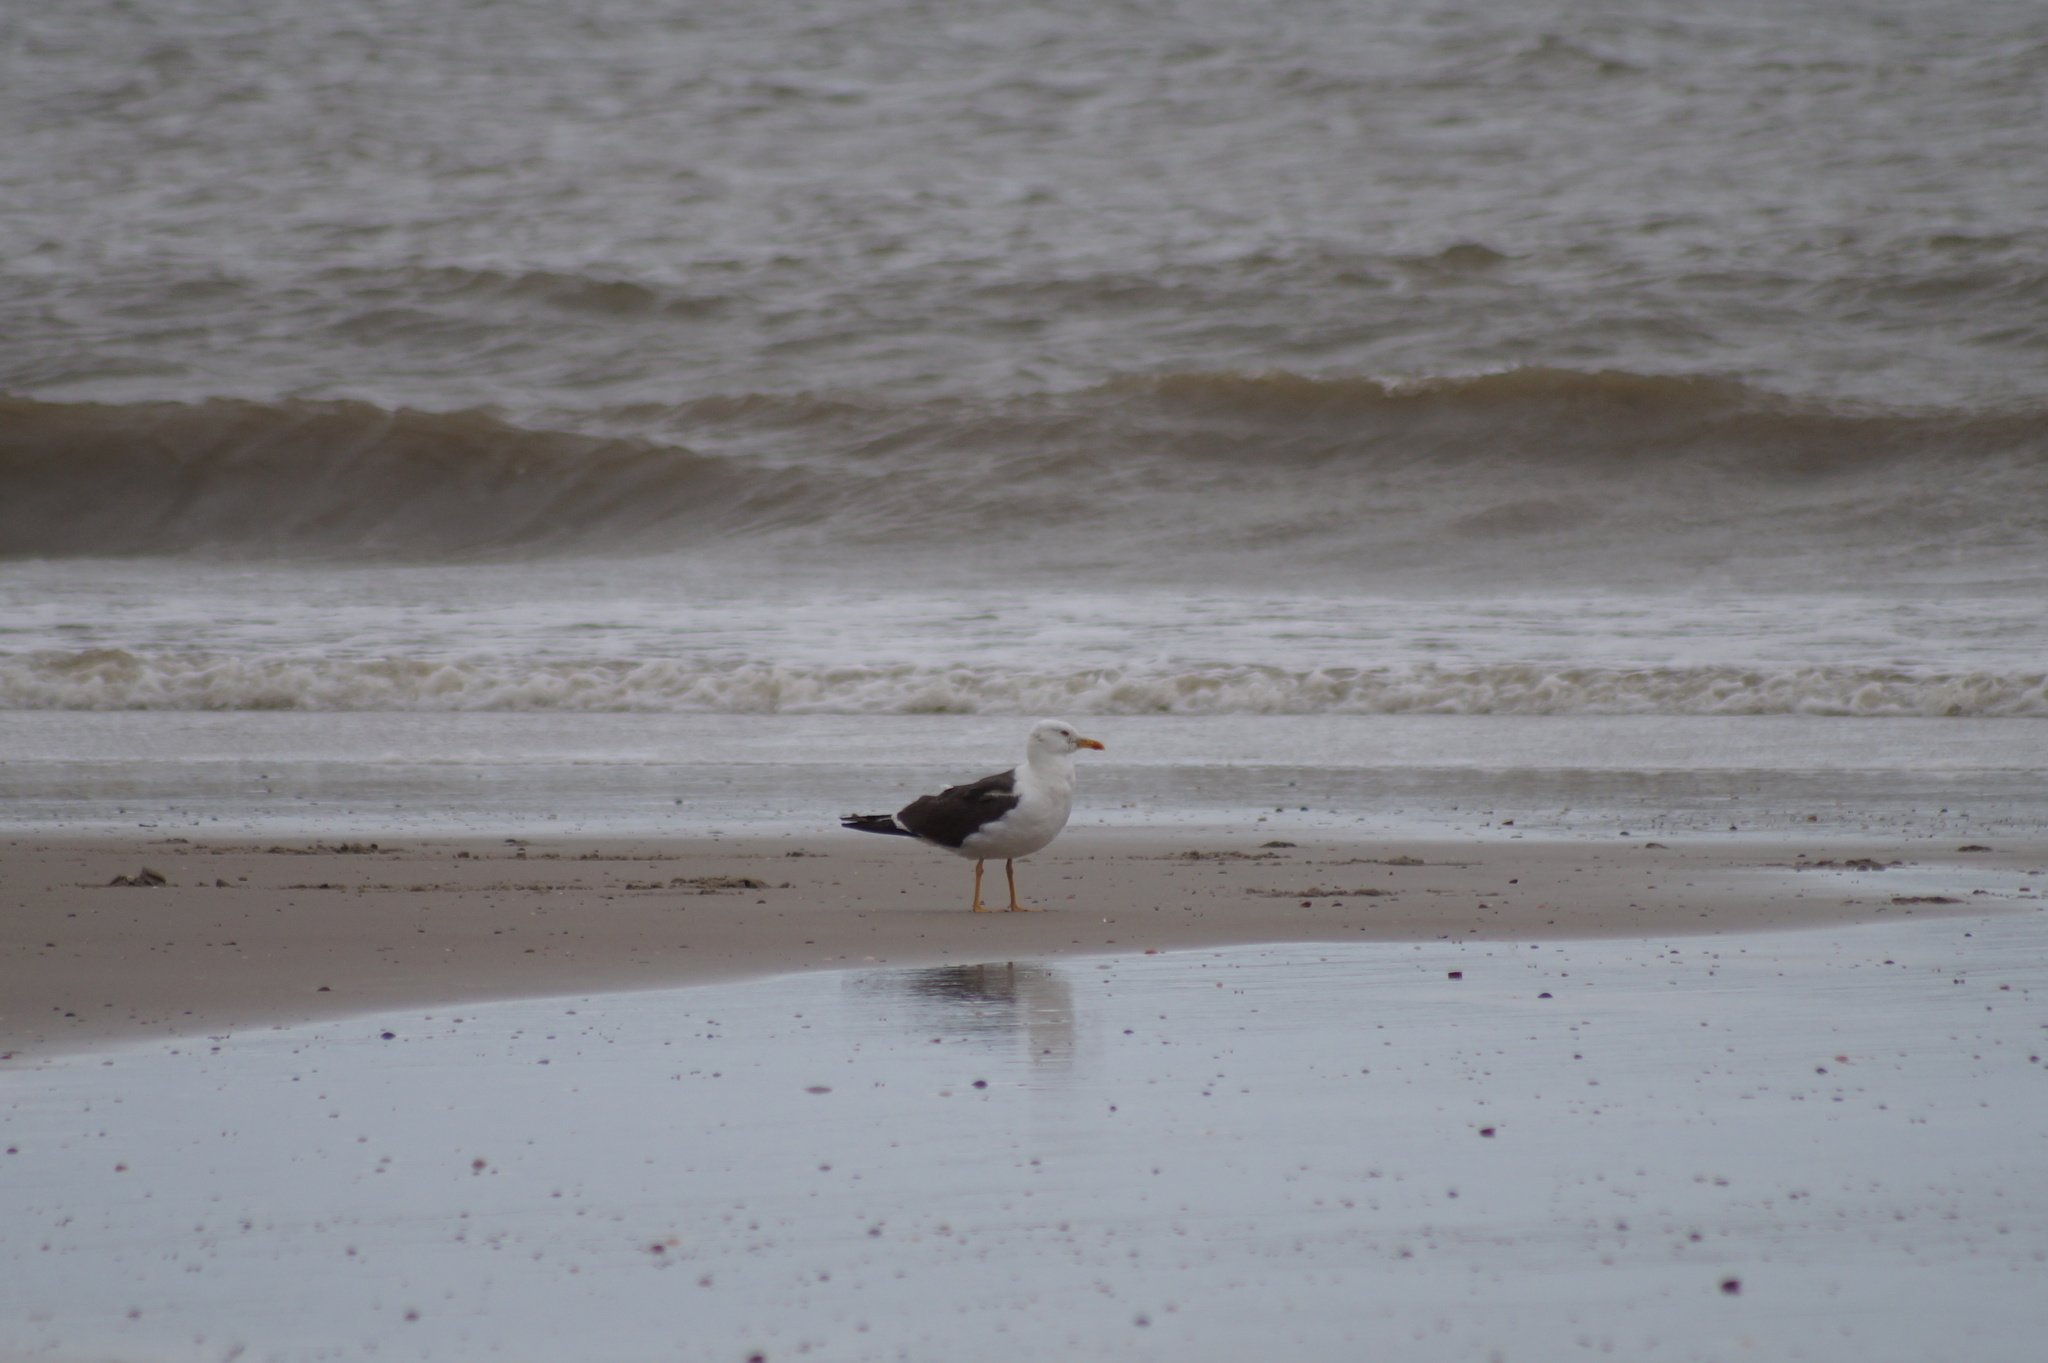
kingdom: Animalia
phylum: Chordata
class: Aves
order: Charadriiformes
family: Laridae
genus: Larus
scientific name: Larus fuscus
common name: Lesser black-backed gull
